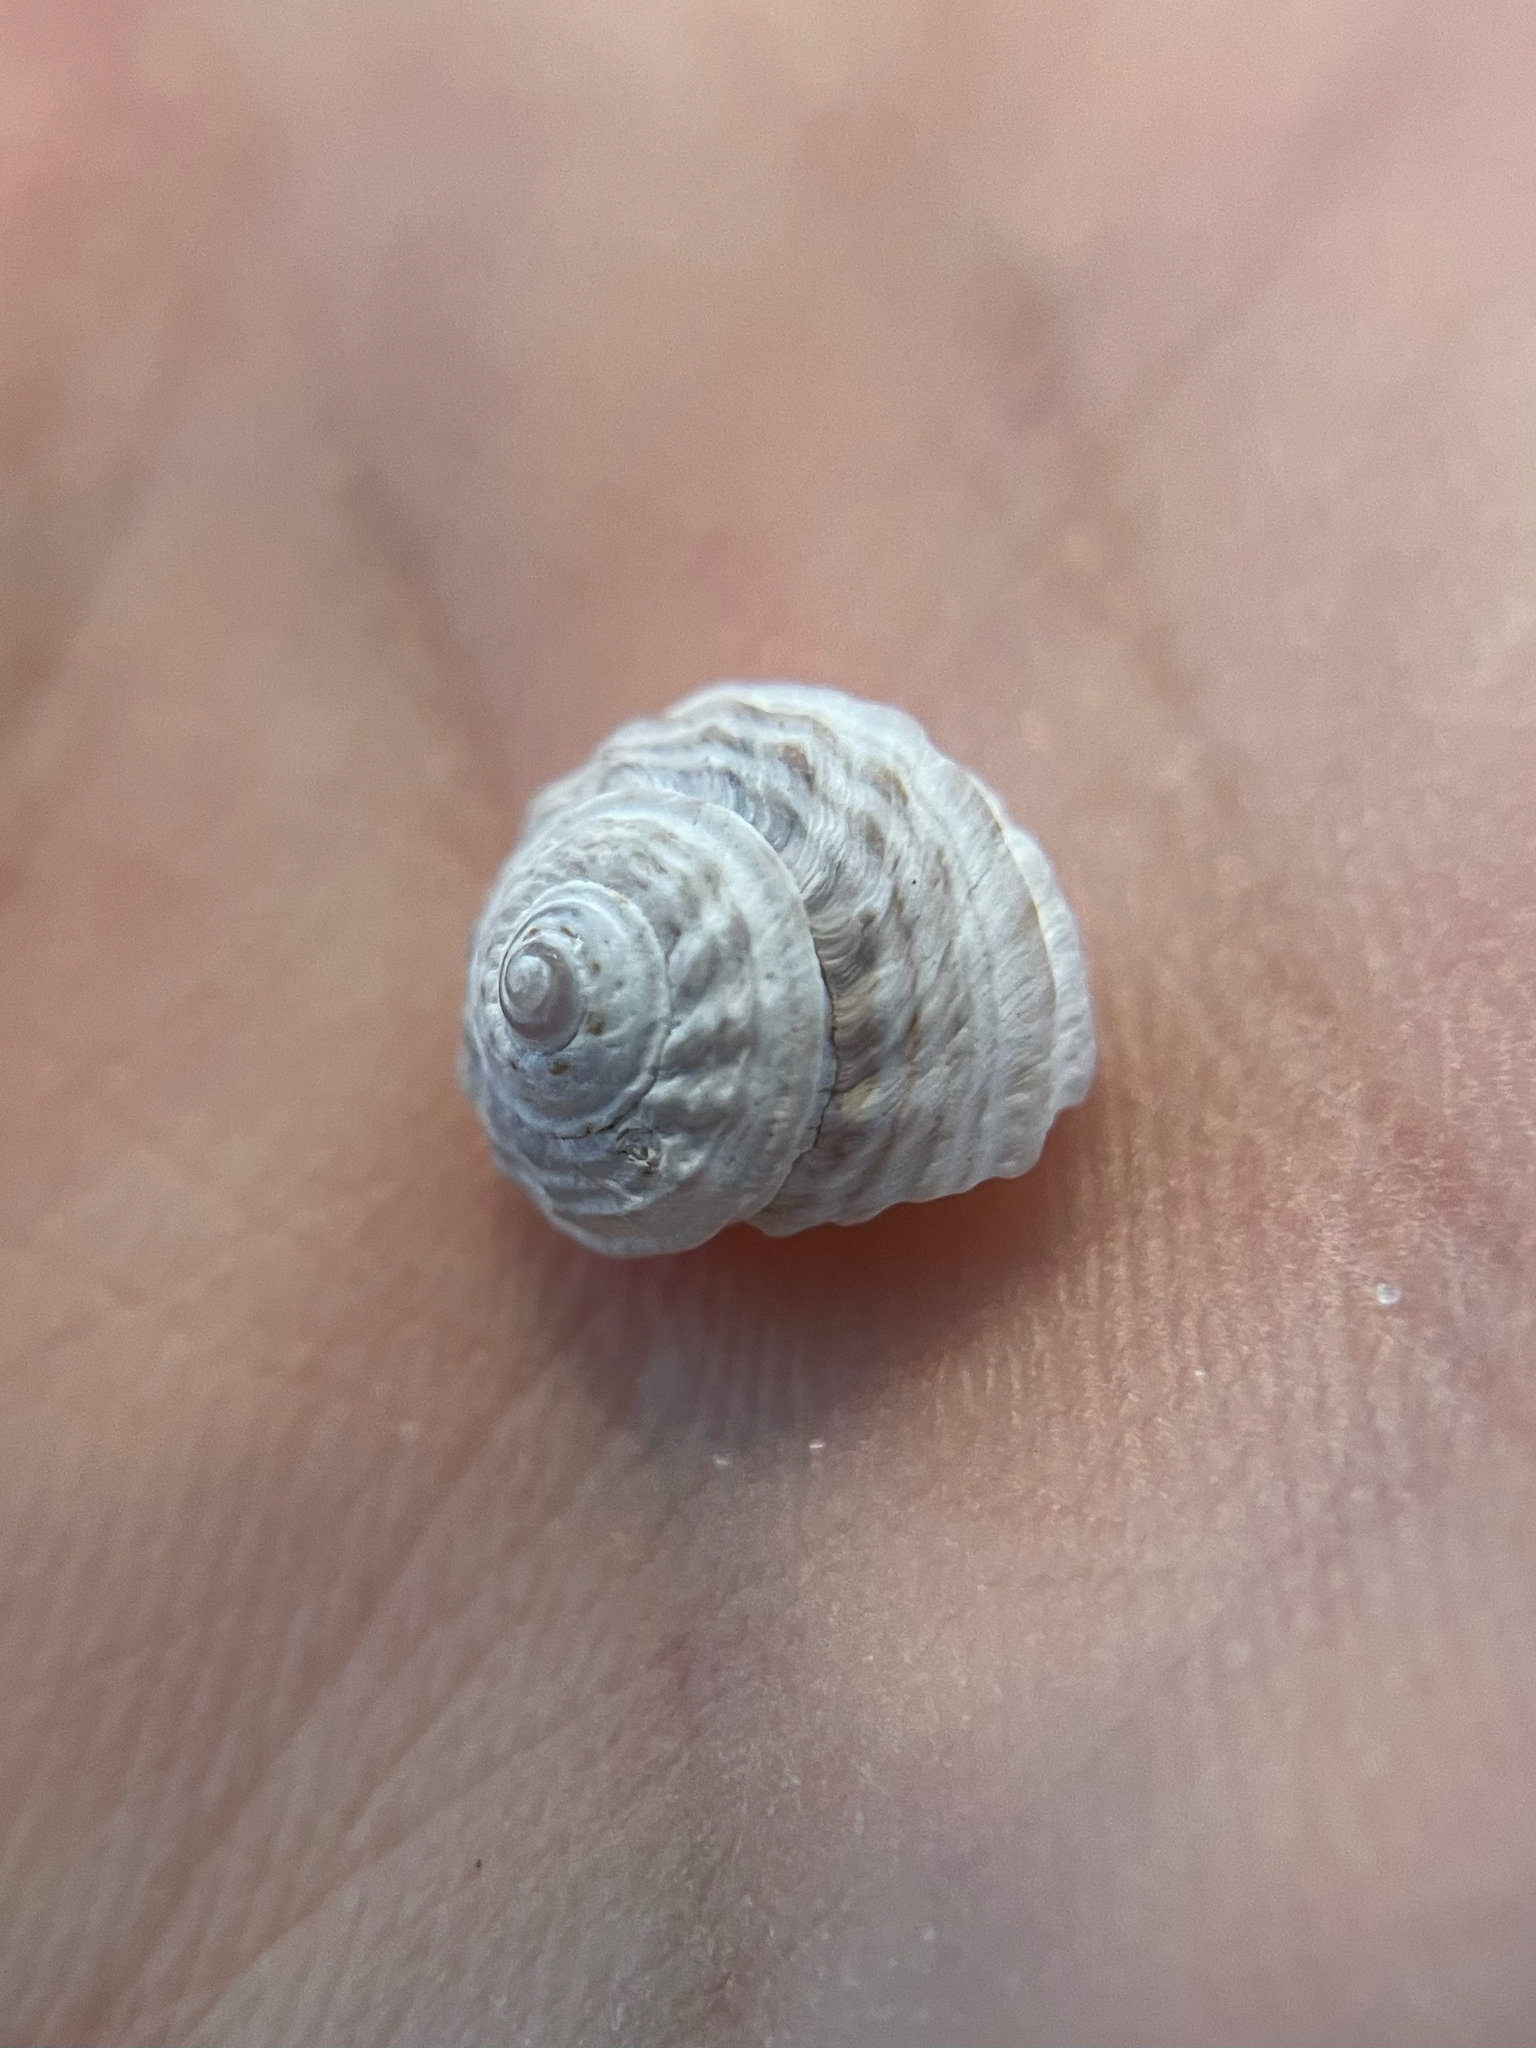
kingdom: Animalia
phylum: Mollusca
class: Gastropoda
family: Modulidae
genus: Modulus
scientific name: Modulus modulus
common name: Atlantic modulus
